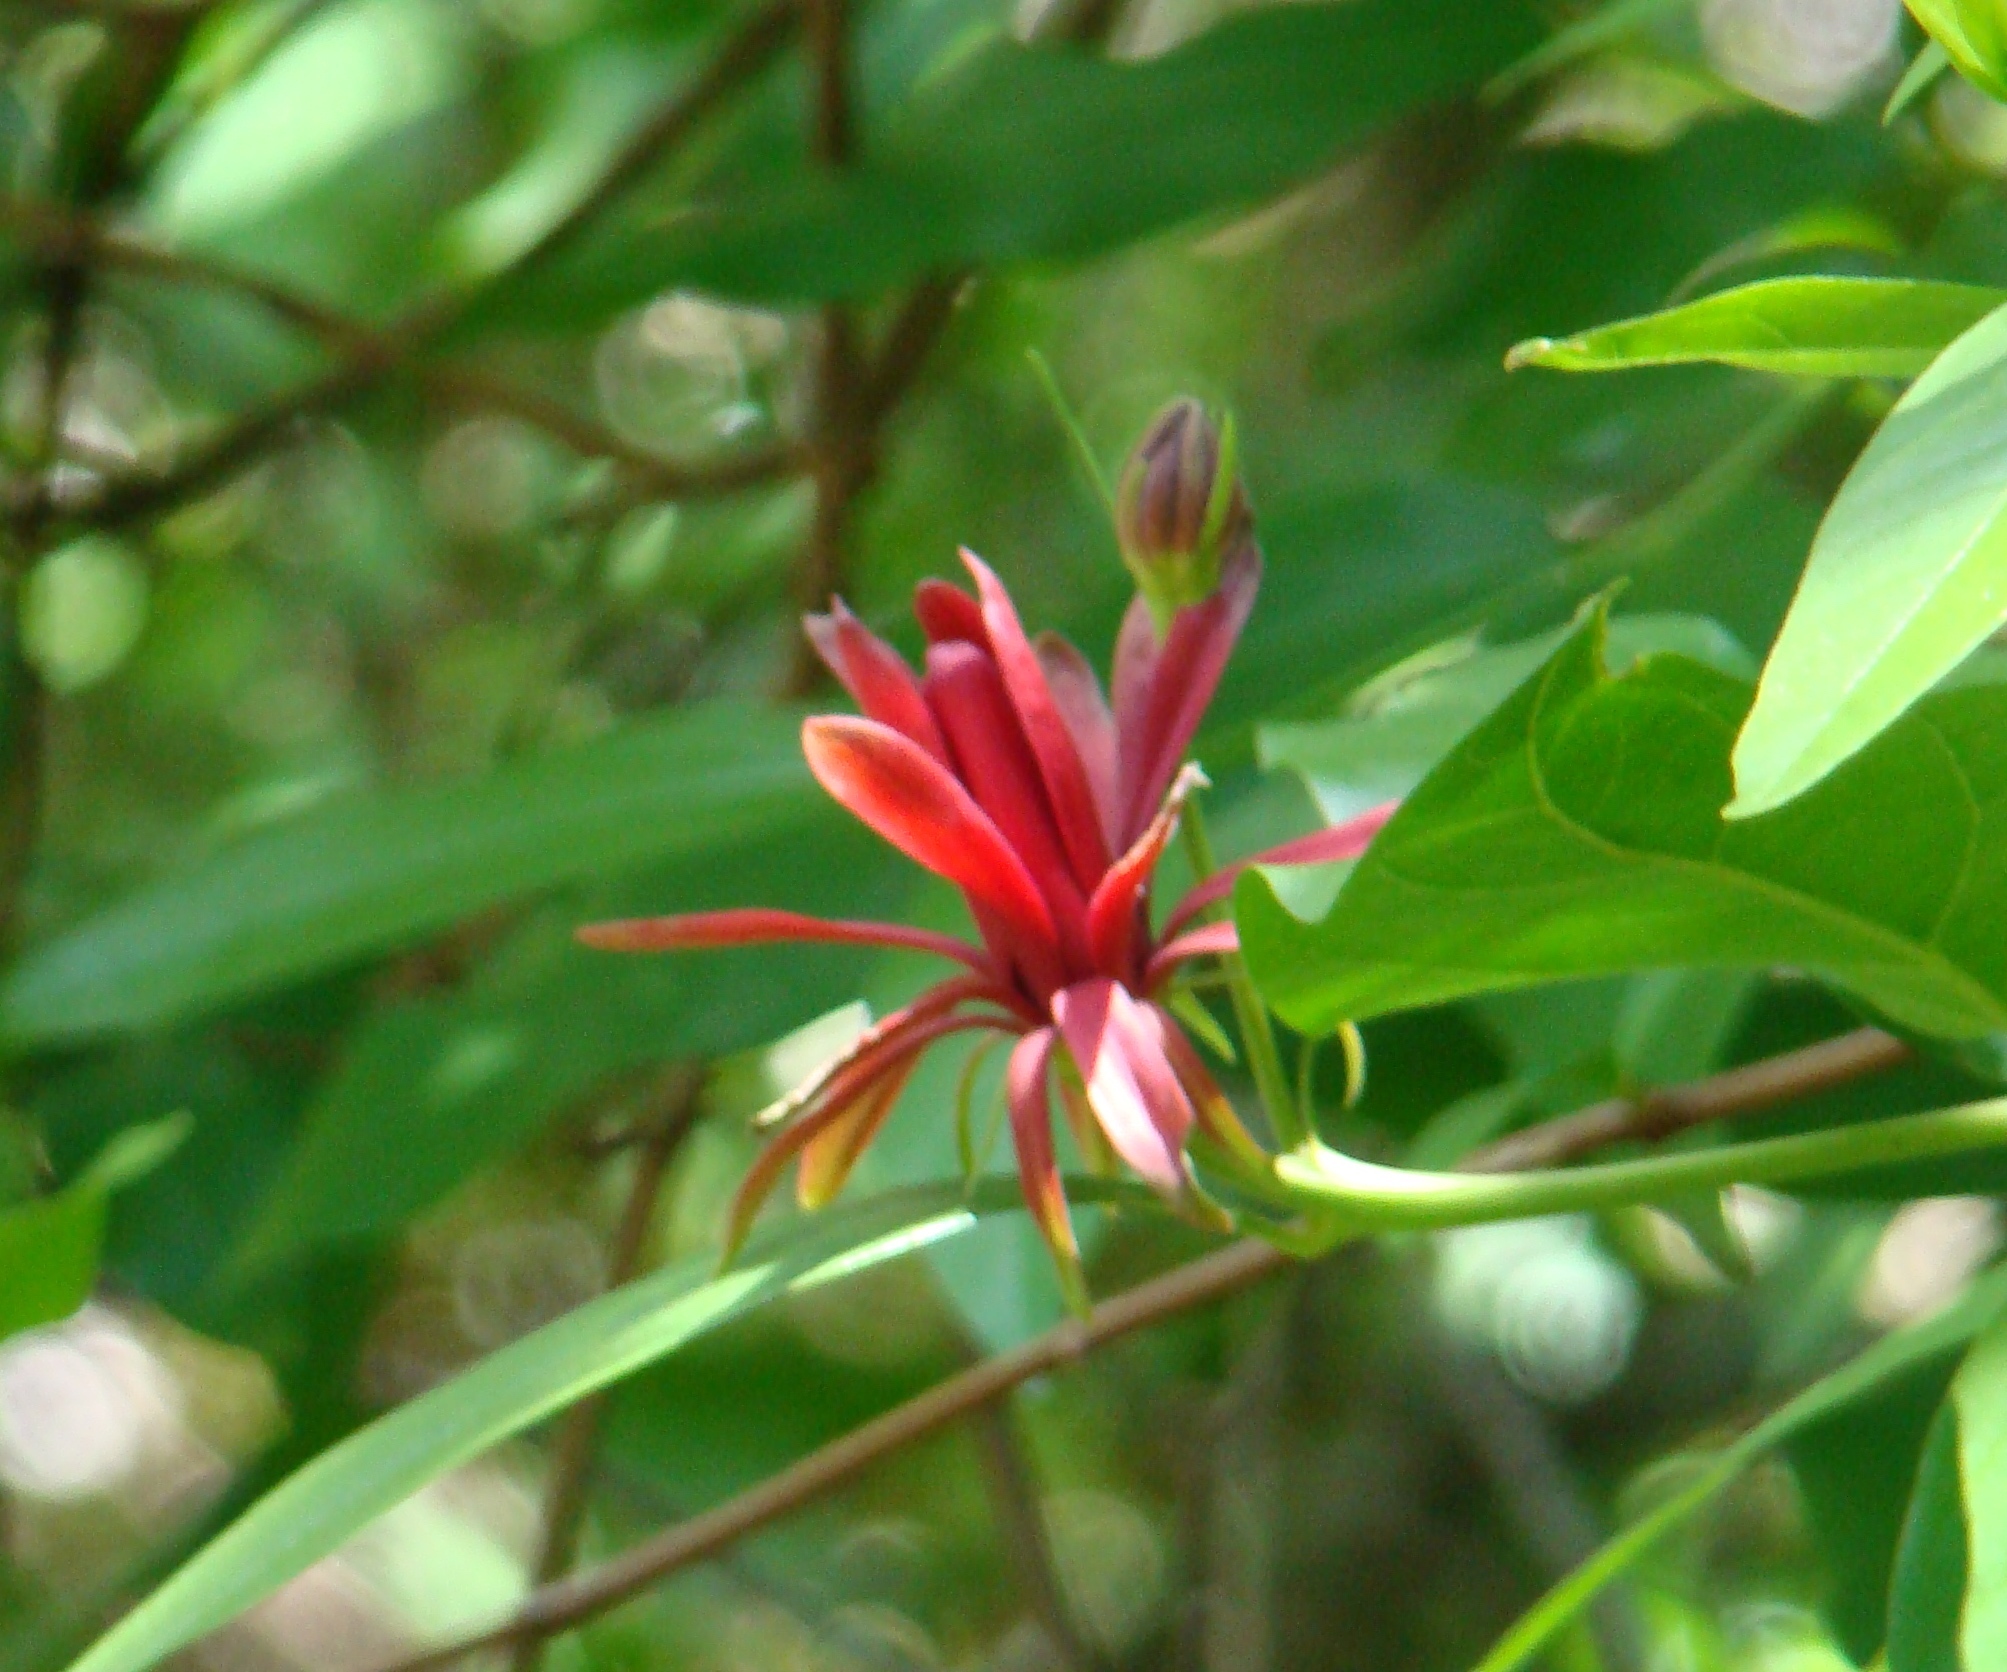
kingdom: Plantae
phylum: Tracheophyta
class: Magnoliopsida
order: Laurales
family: Calycanthaceae
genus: Calycanthus
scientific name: Calycanthus occidentalis
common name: California spicebush
